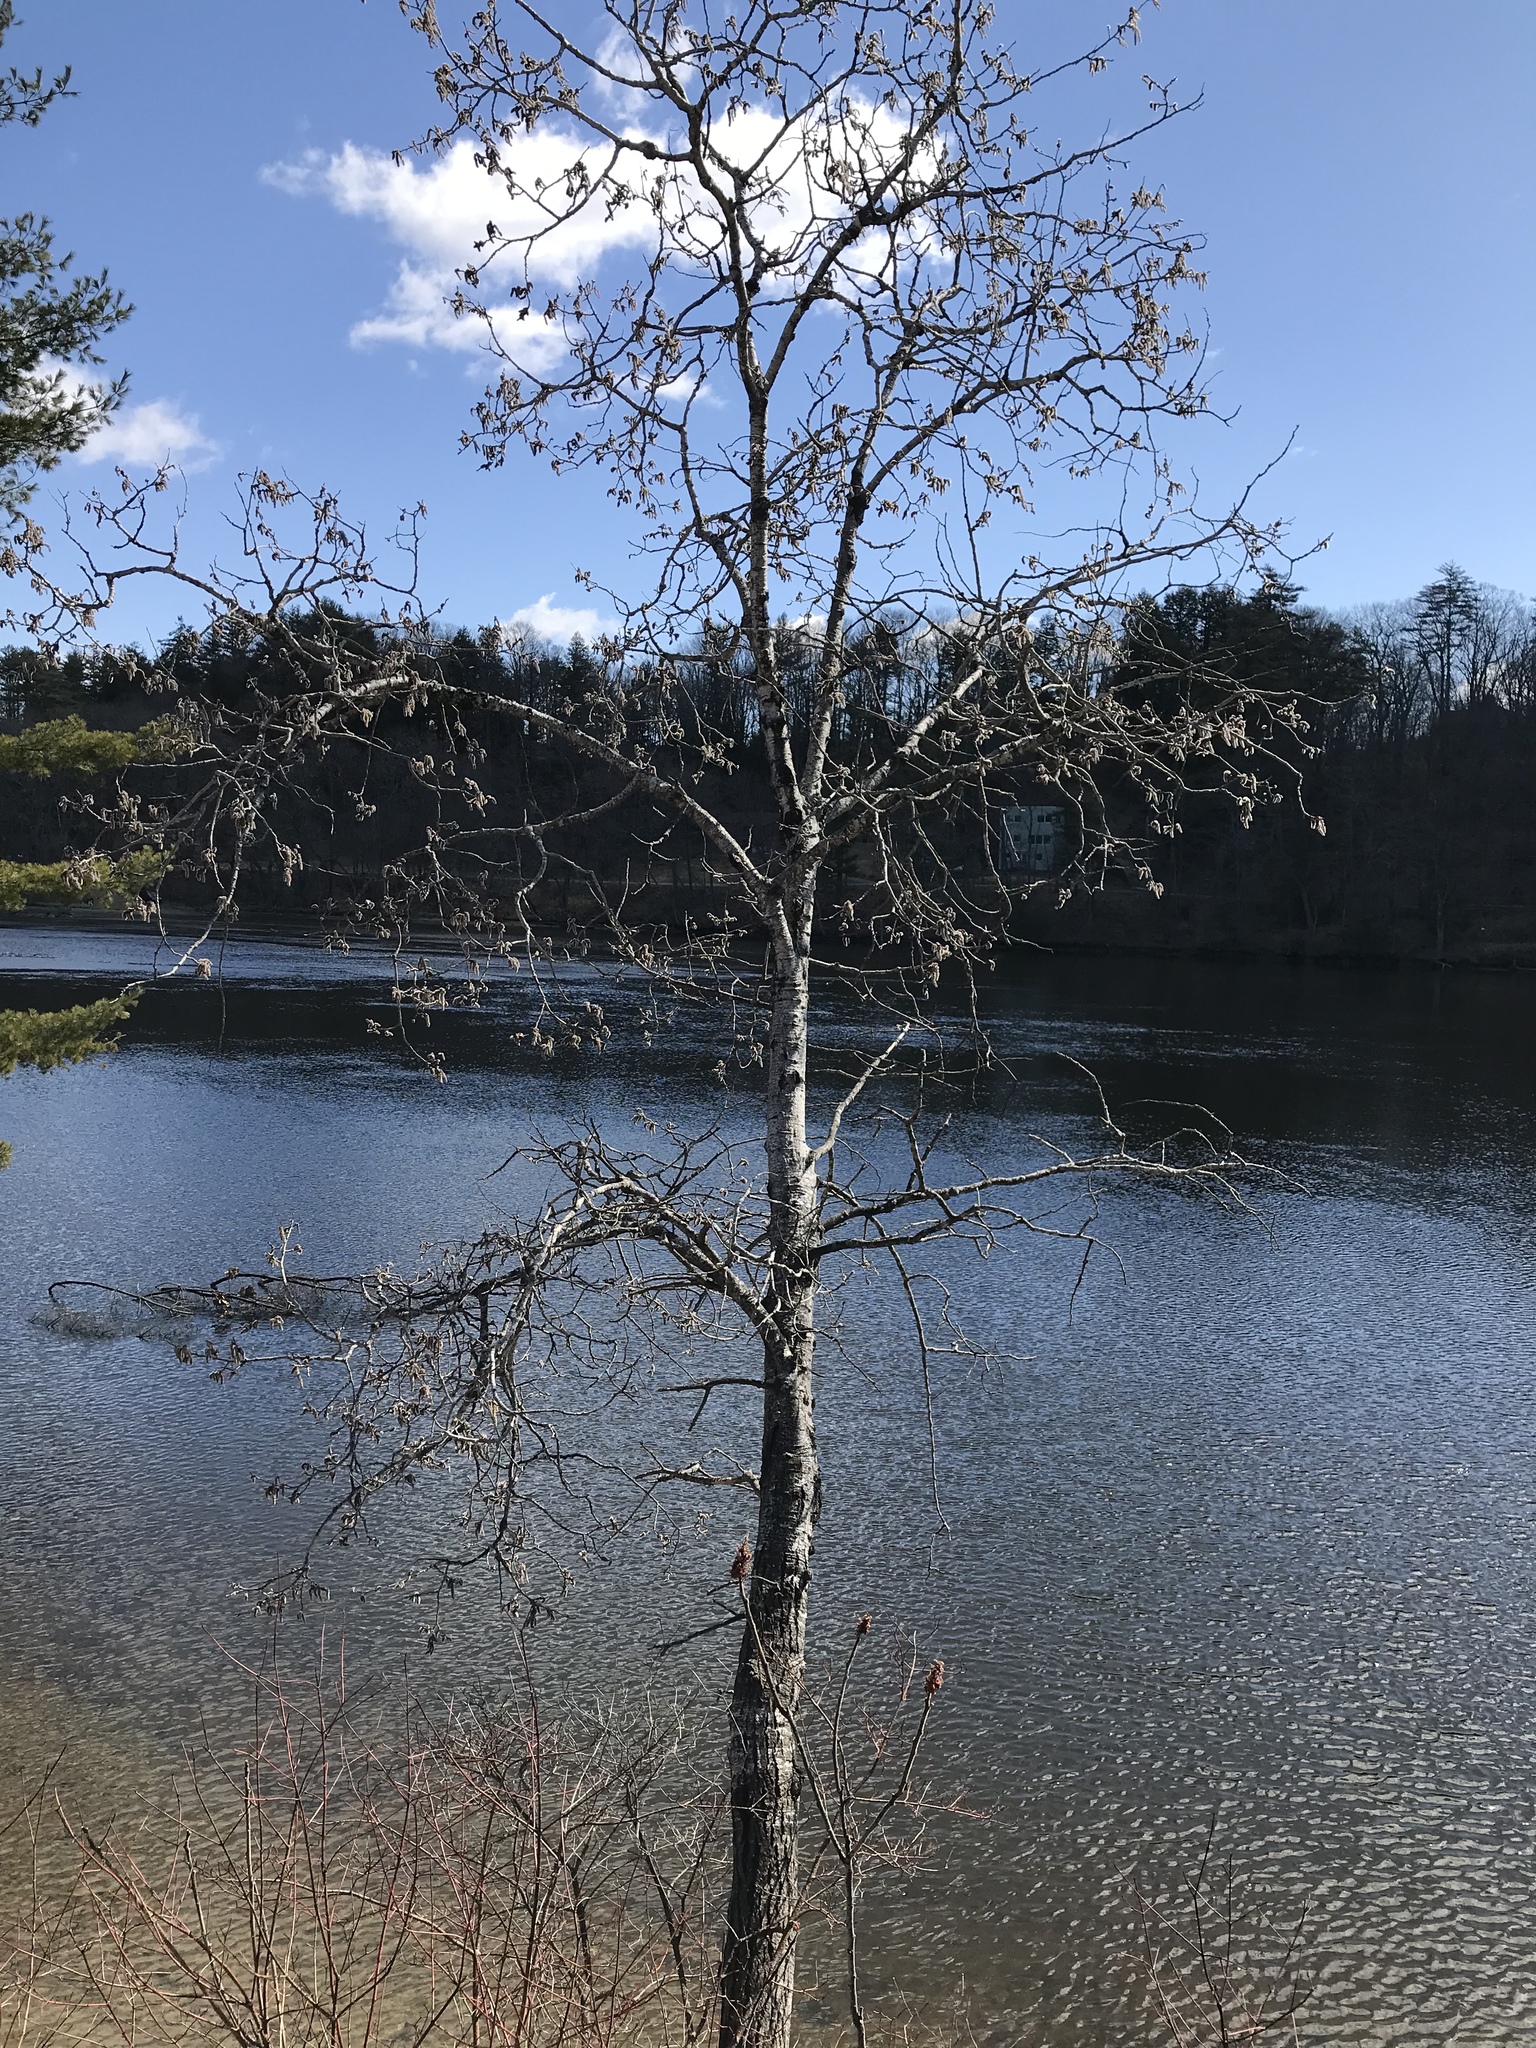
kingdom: Plantae
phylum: Tracheophyta
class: Magnoliopsida
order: Malpighiales
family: Salicaceae
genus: Populus
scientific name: Populus tremuloides
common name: Quaking aspen
